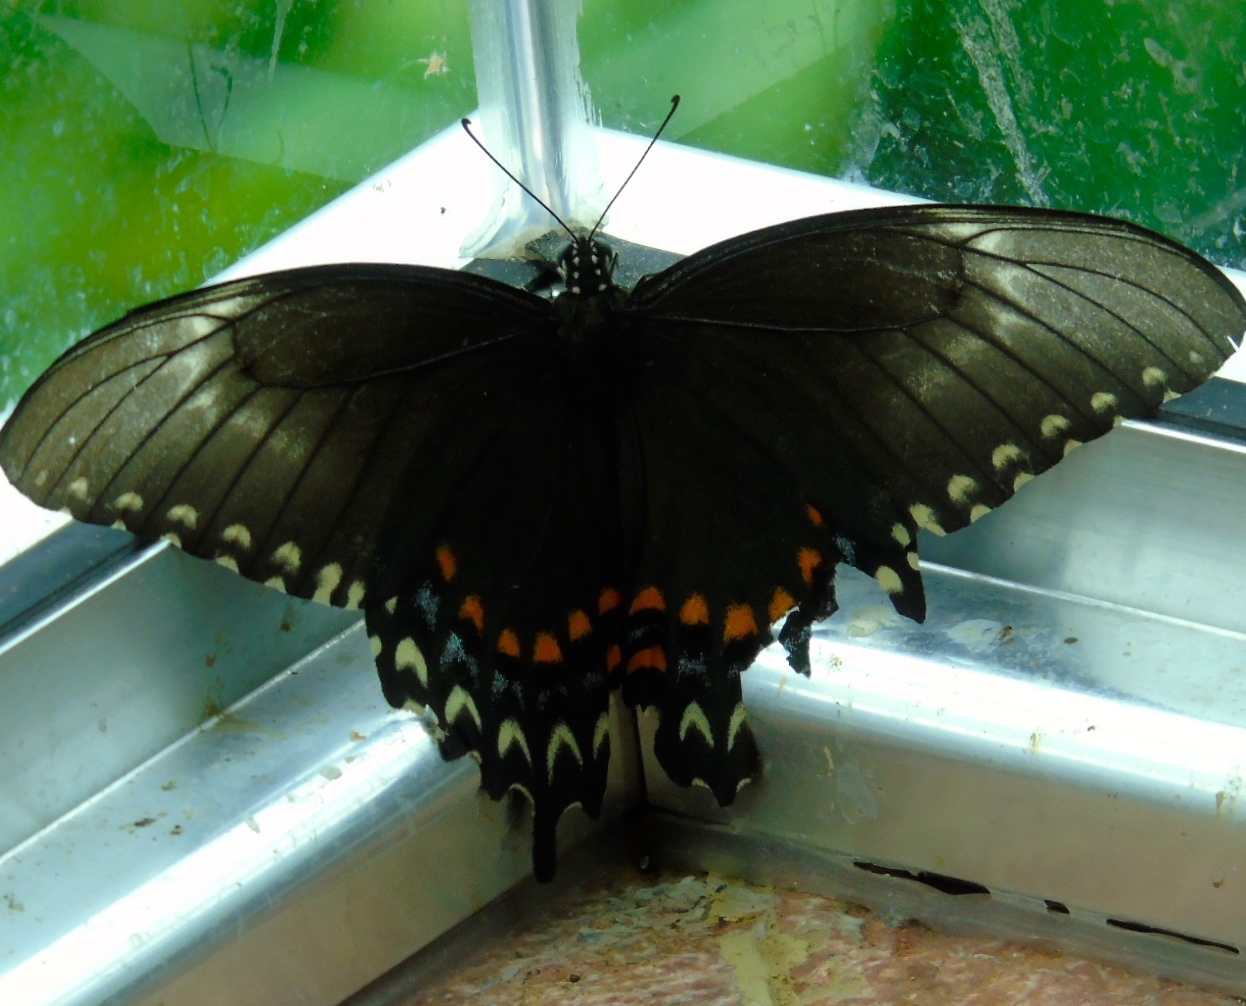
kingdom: Animalia
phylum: Arthropoda
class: Insecta
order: Lepidoptera
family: Papilionidae
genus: Heraclides
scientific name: Heraclides pallas
